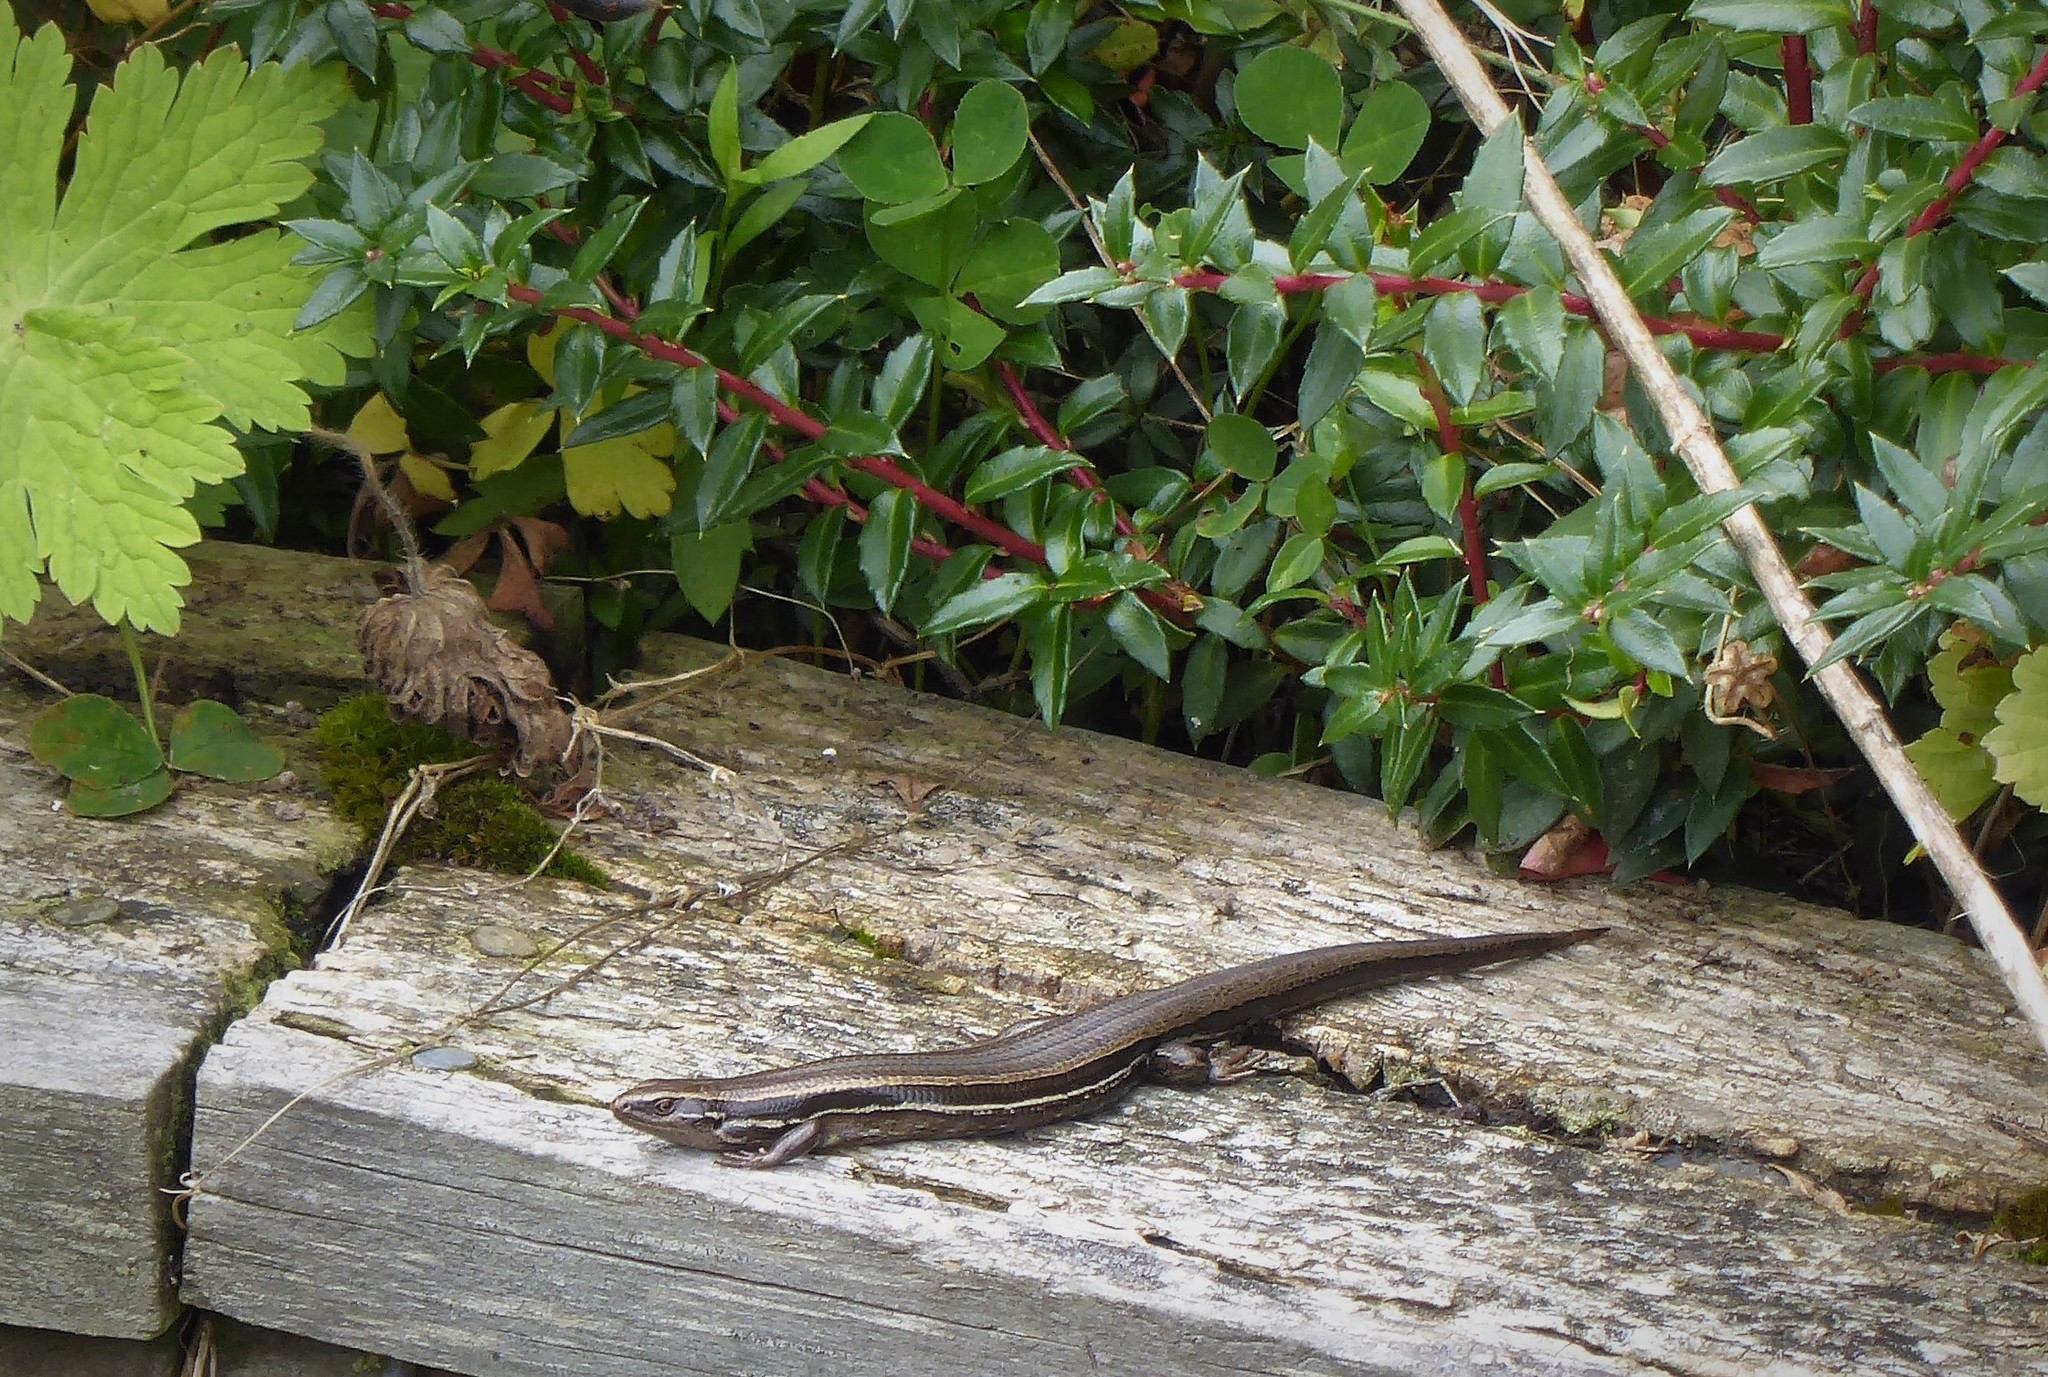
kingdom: Animalia
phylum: Chordata
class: Squamata
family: Scincidae
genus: Oligosoma
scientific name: Oligosoma polychroma
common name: Common new zealand skink
